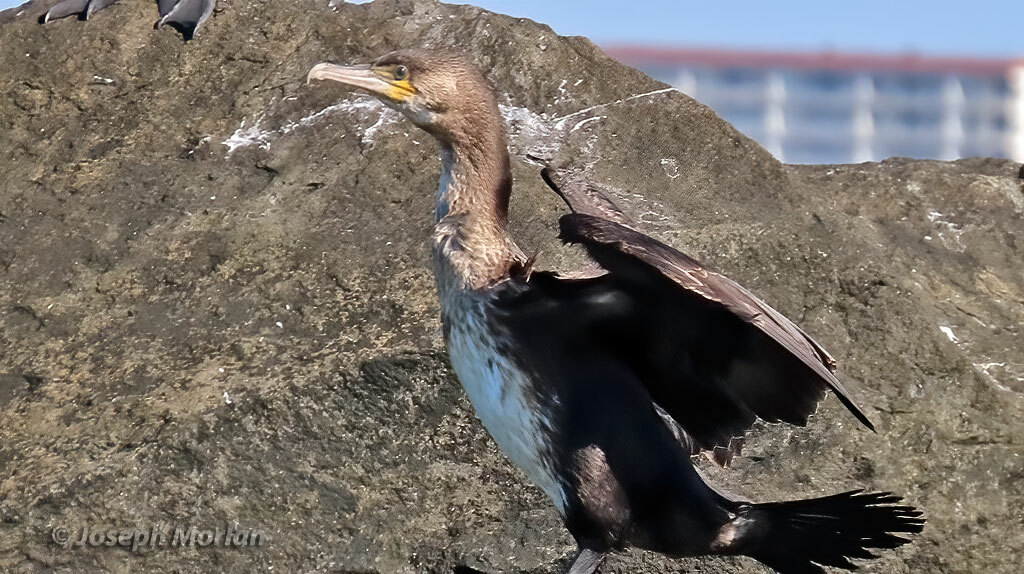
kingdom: Animalia
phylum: Chordata
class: Aves
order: Suliformes
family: Phalacrocoracidae
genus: Phalacrocorax
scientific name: Phalacrocorax carbo
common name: Great cormorant
